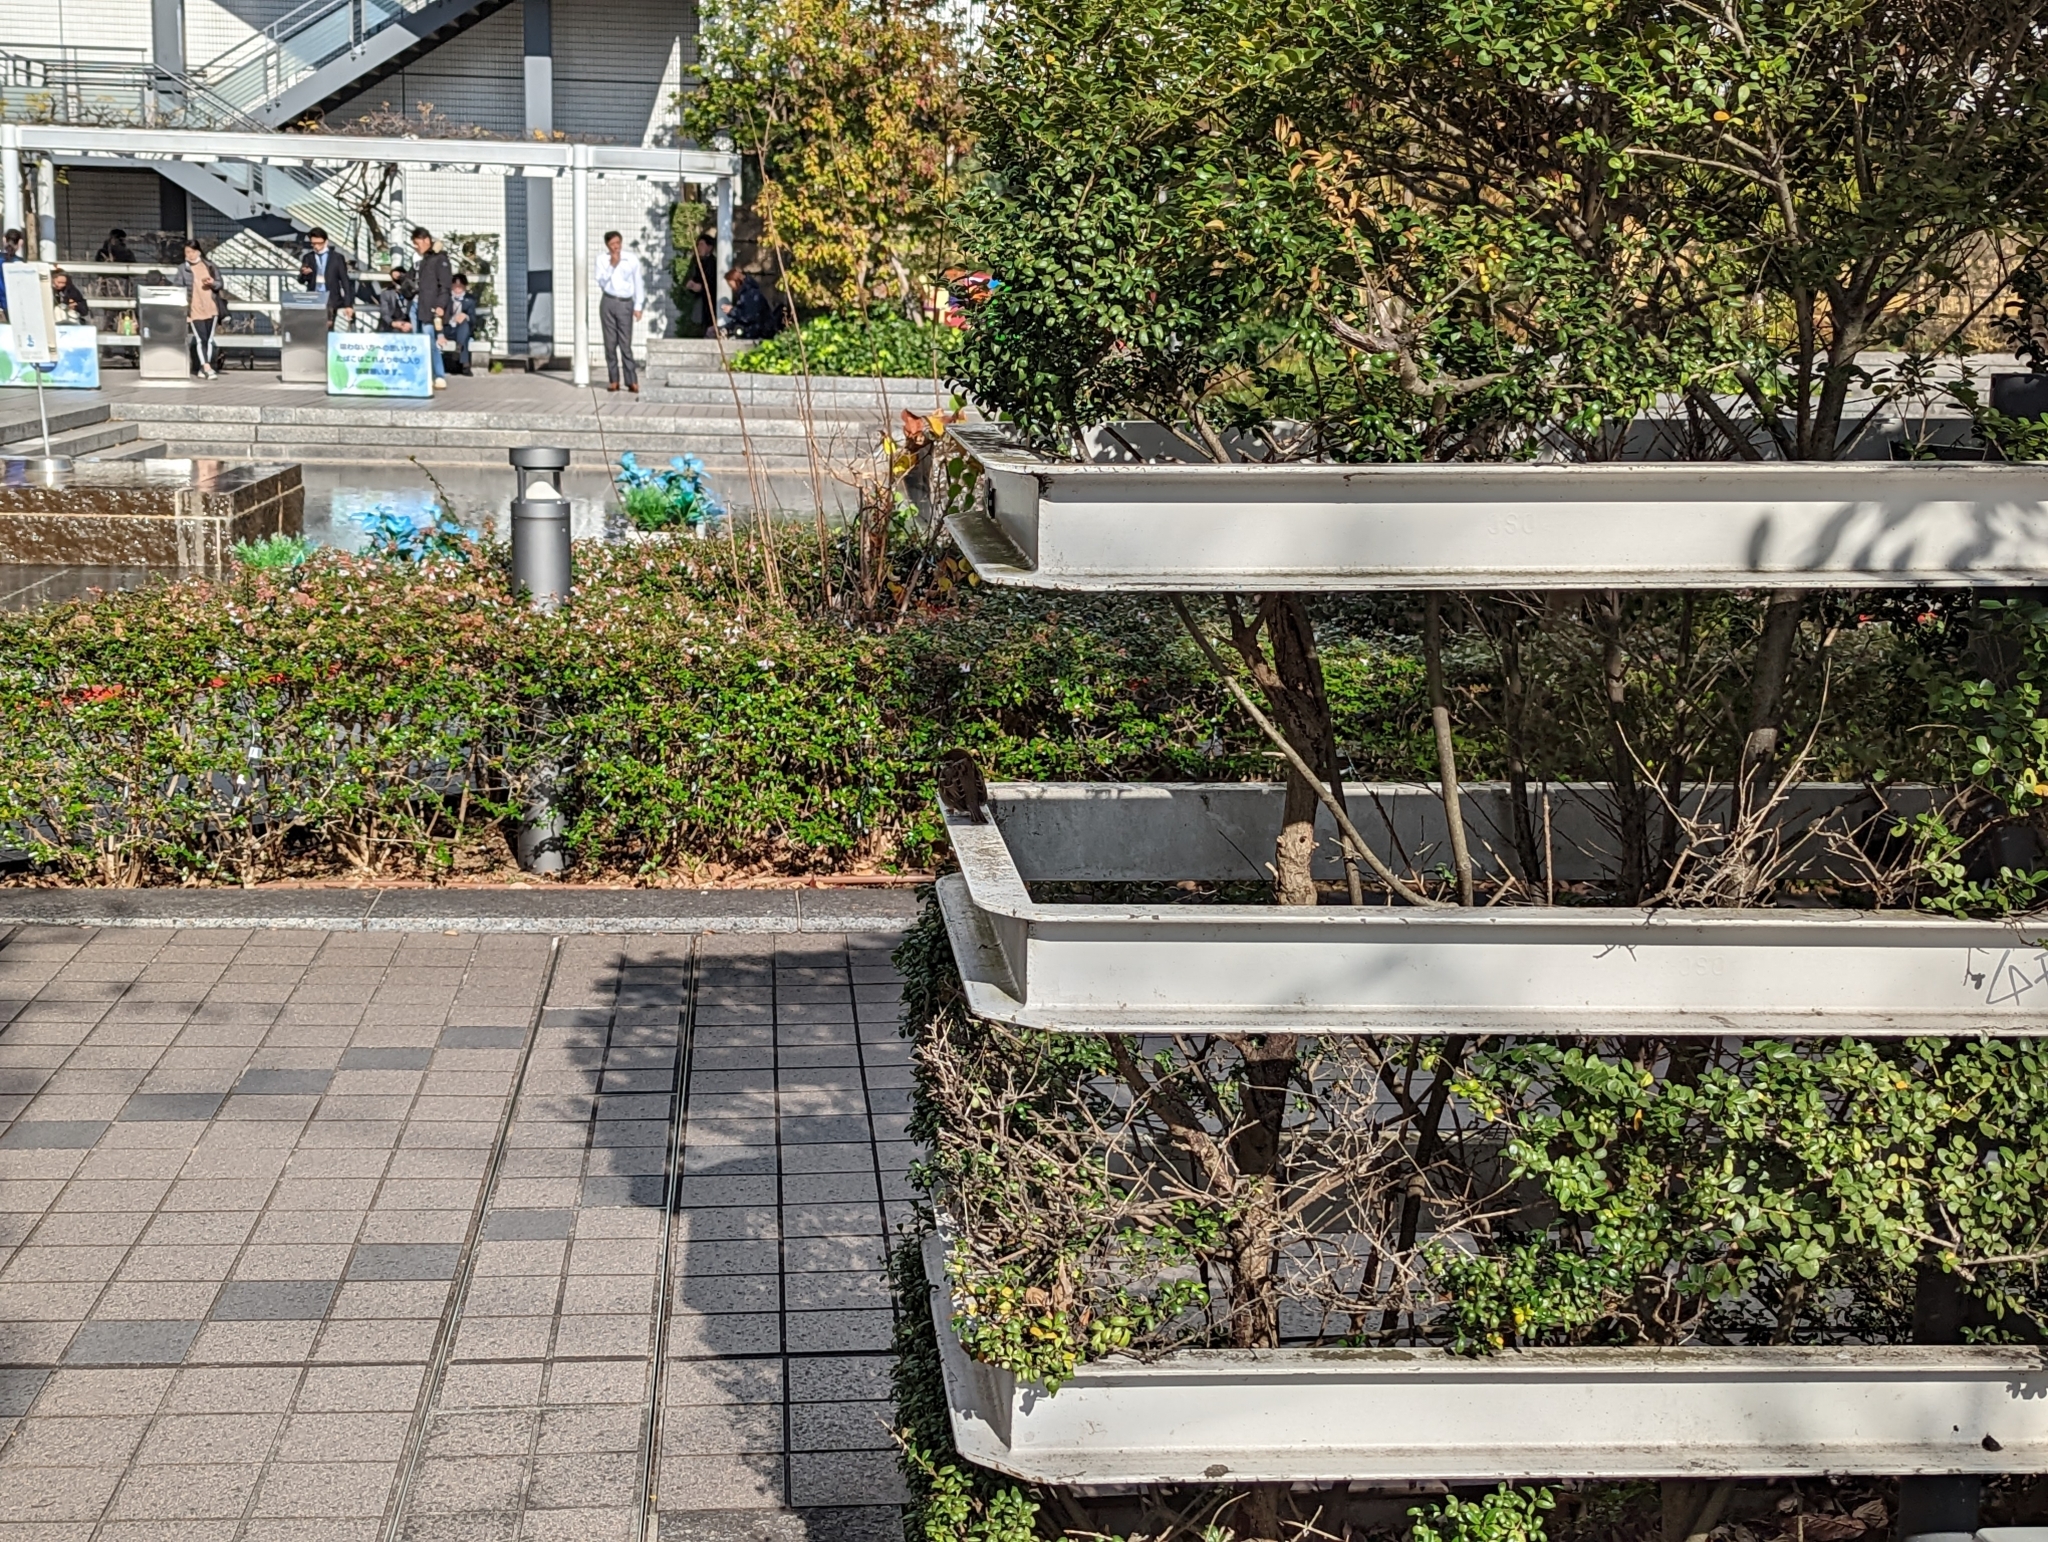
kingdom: Animalia
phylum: Chordata
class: Aves
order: Passeriformes
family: Passeridae
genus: Passer
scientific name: Passer montanus
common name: Eurasian tree sparrow
